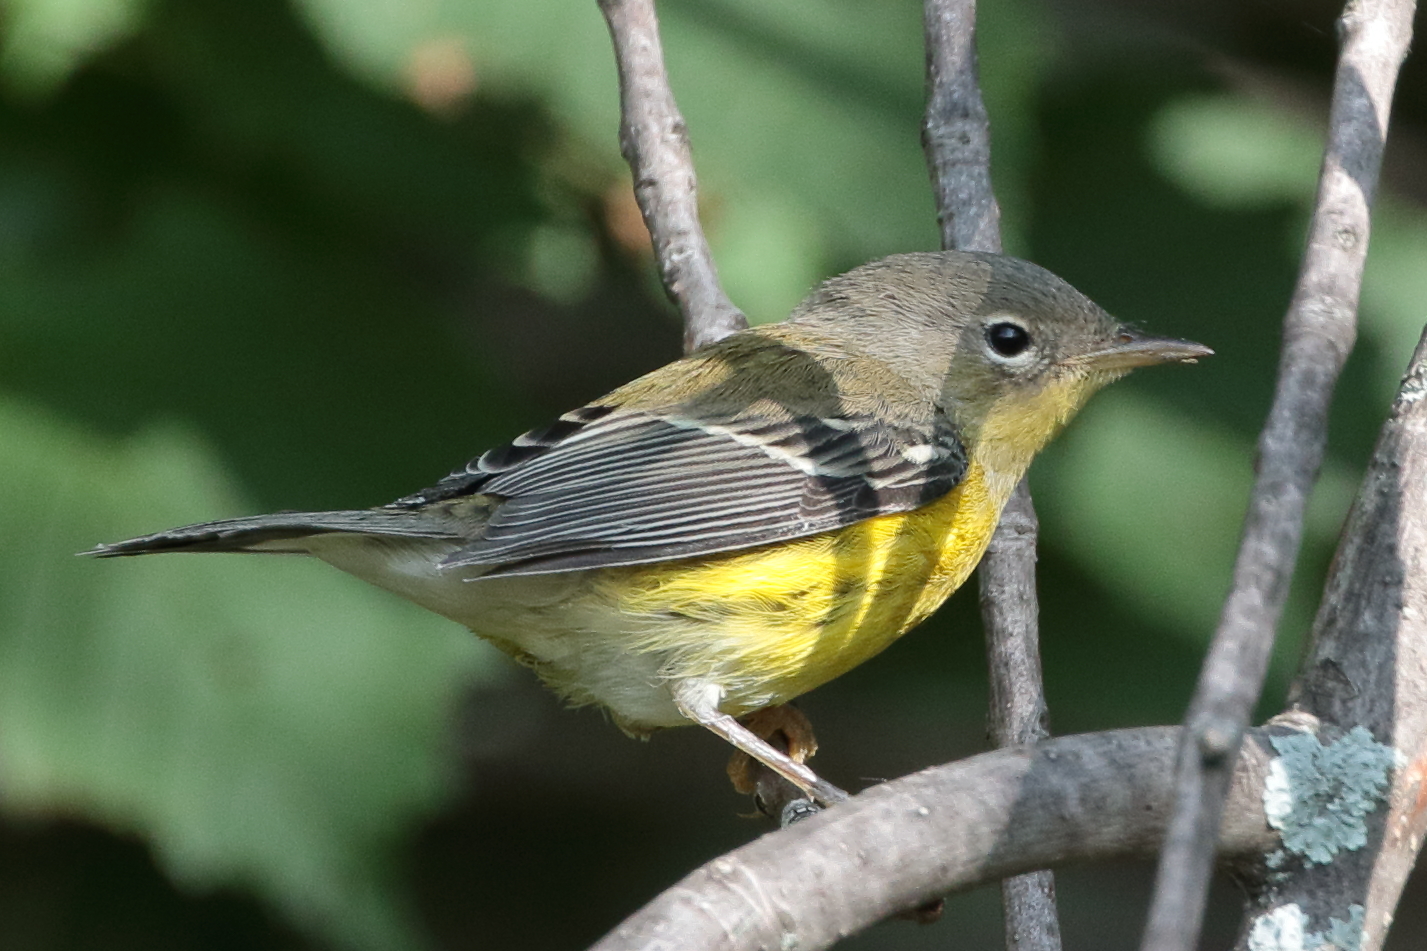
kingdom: Animalia
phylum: Chordata
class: Aves
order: Passeriformes
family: Parulidae
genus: Setophaga
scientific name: Setophaga magnolia
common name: Magnolia warbler
